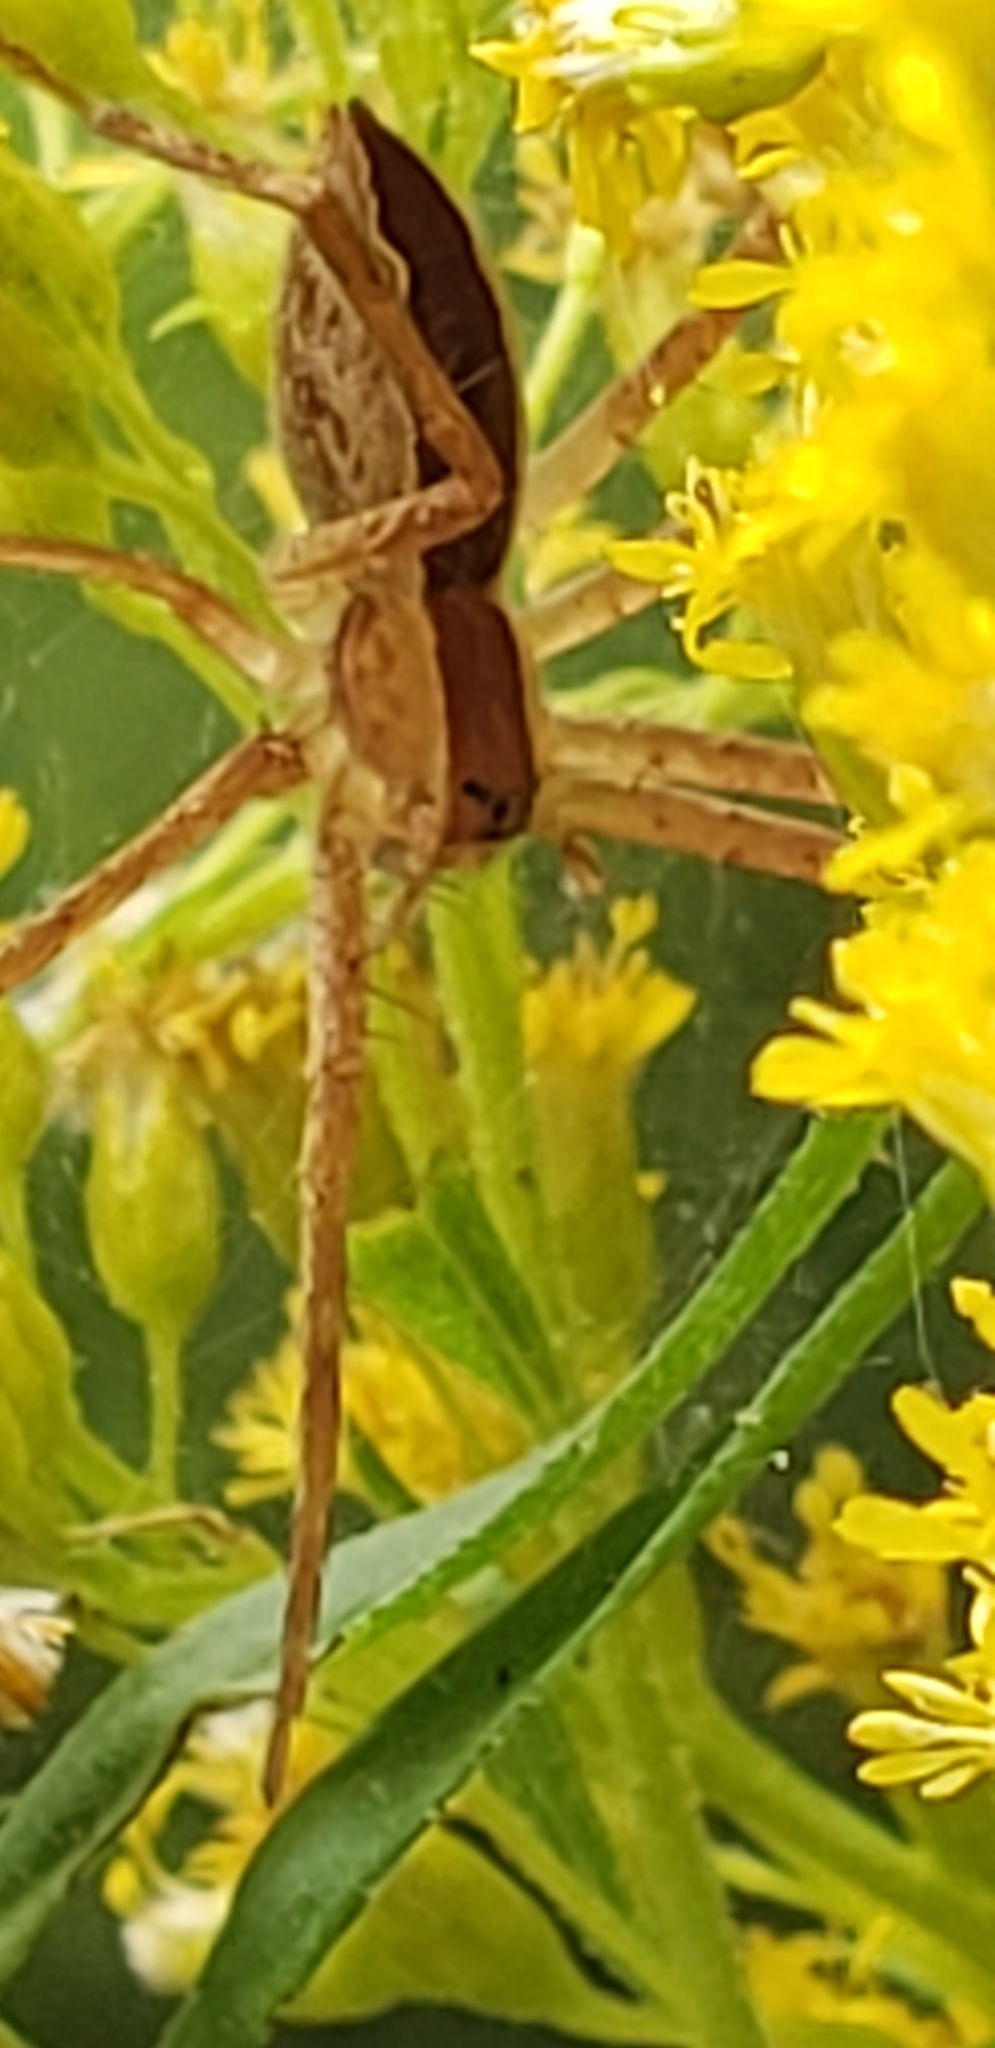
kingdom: Animalia
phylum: Arthropoda
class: Arachnida
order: Araneae
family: Pisauridae
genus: Pisaurina
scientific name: Pisaurina mira
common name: American nursery web spider
